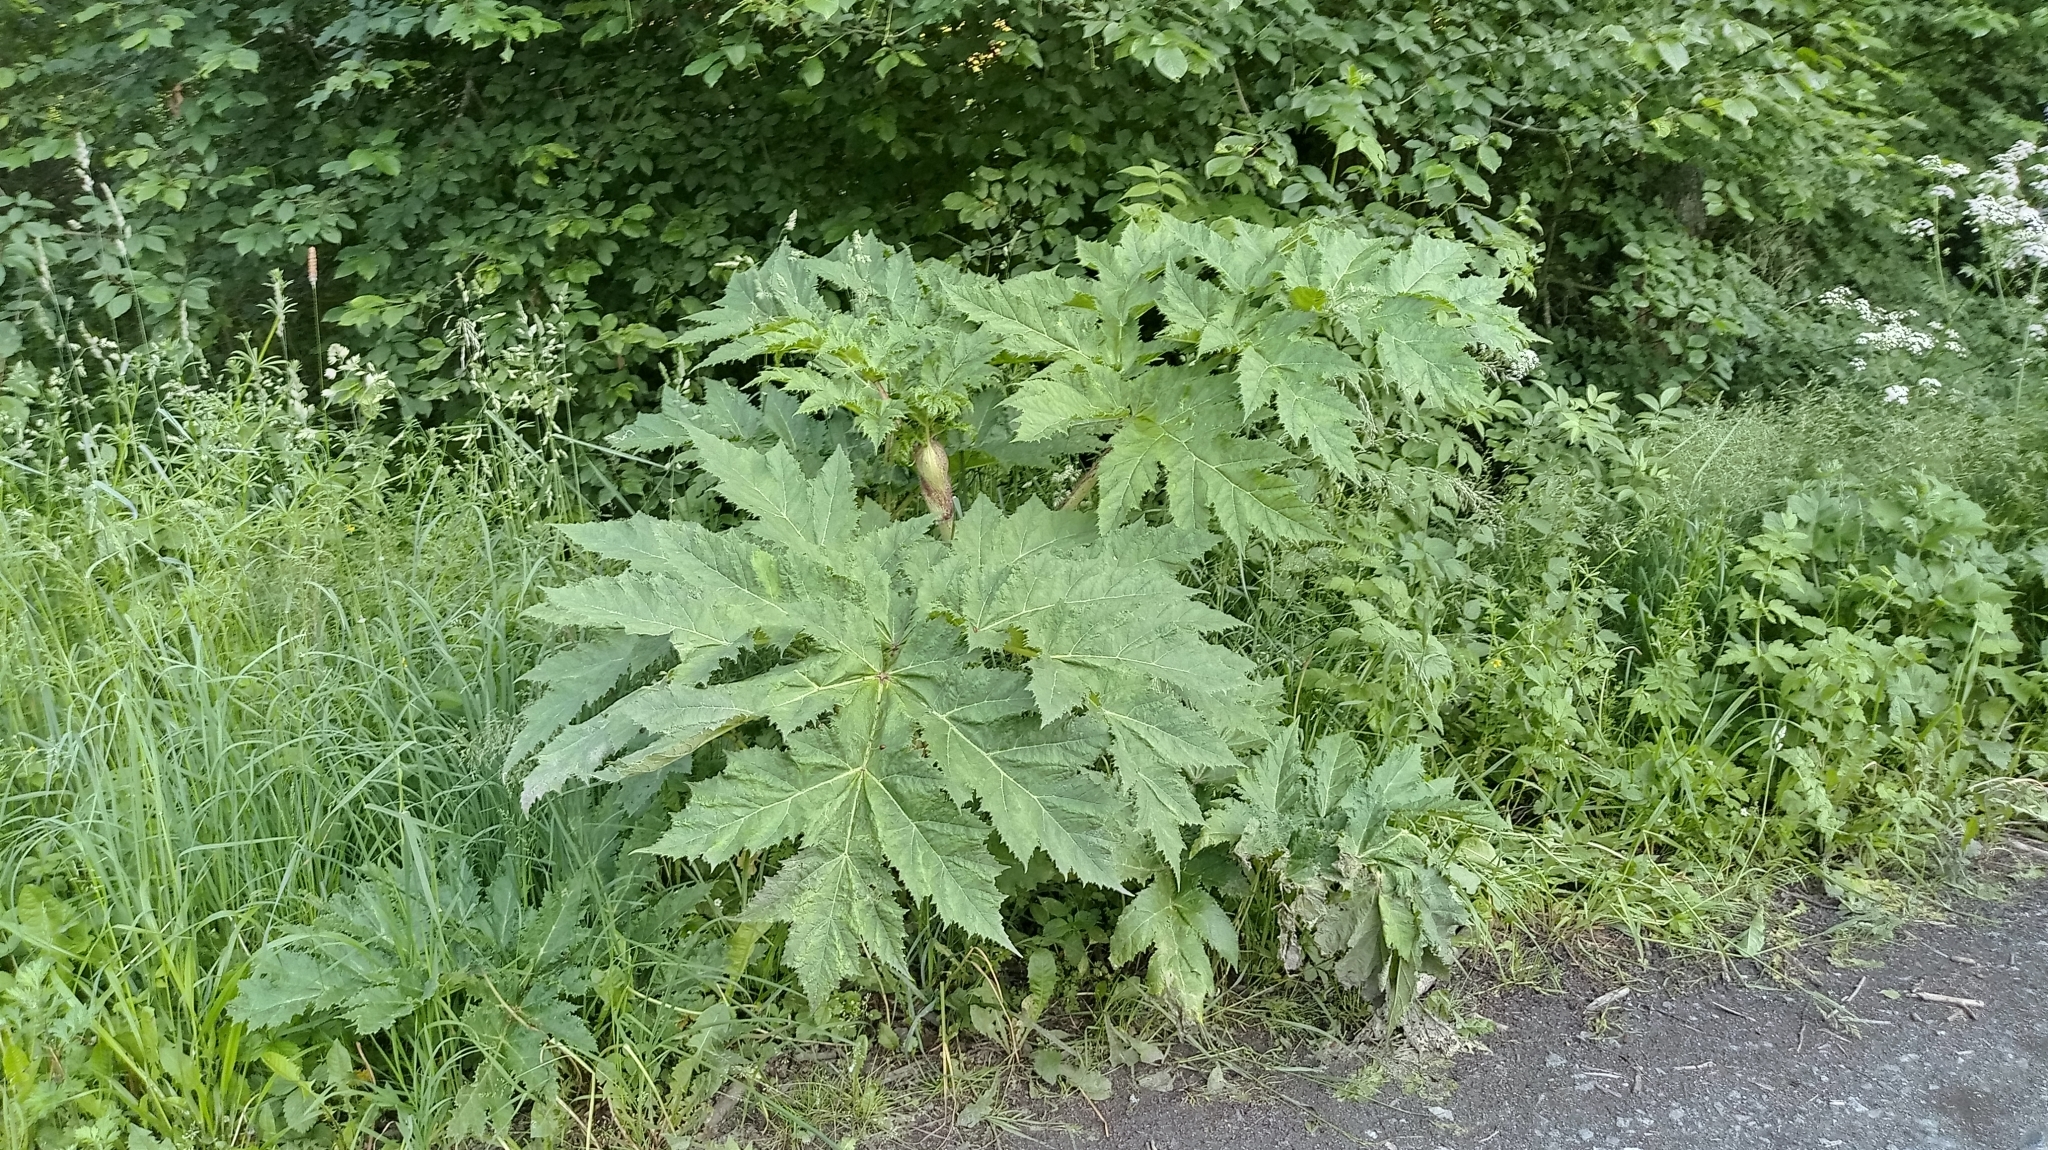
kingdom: Plantae
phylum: Tracheophyta
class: Magnoliopsida
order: Apiales
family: Apiaceae
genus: Heracleum
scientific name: Heracleum mantegazzianum
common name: Giant hogweed
